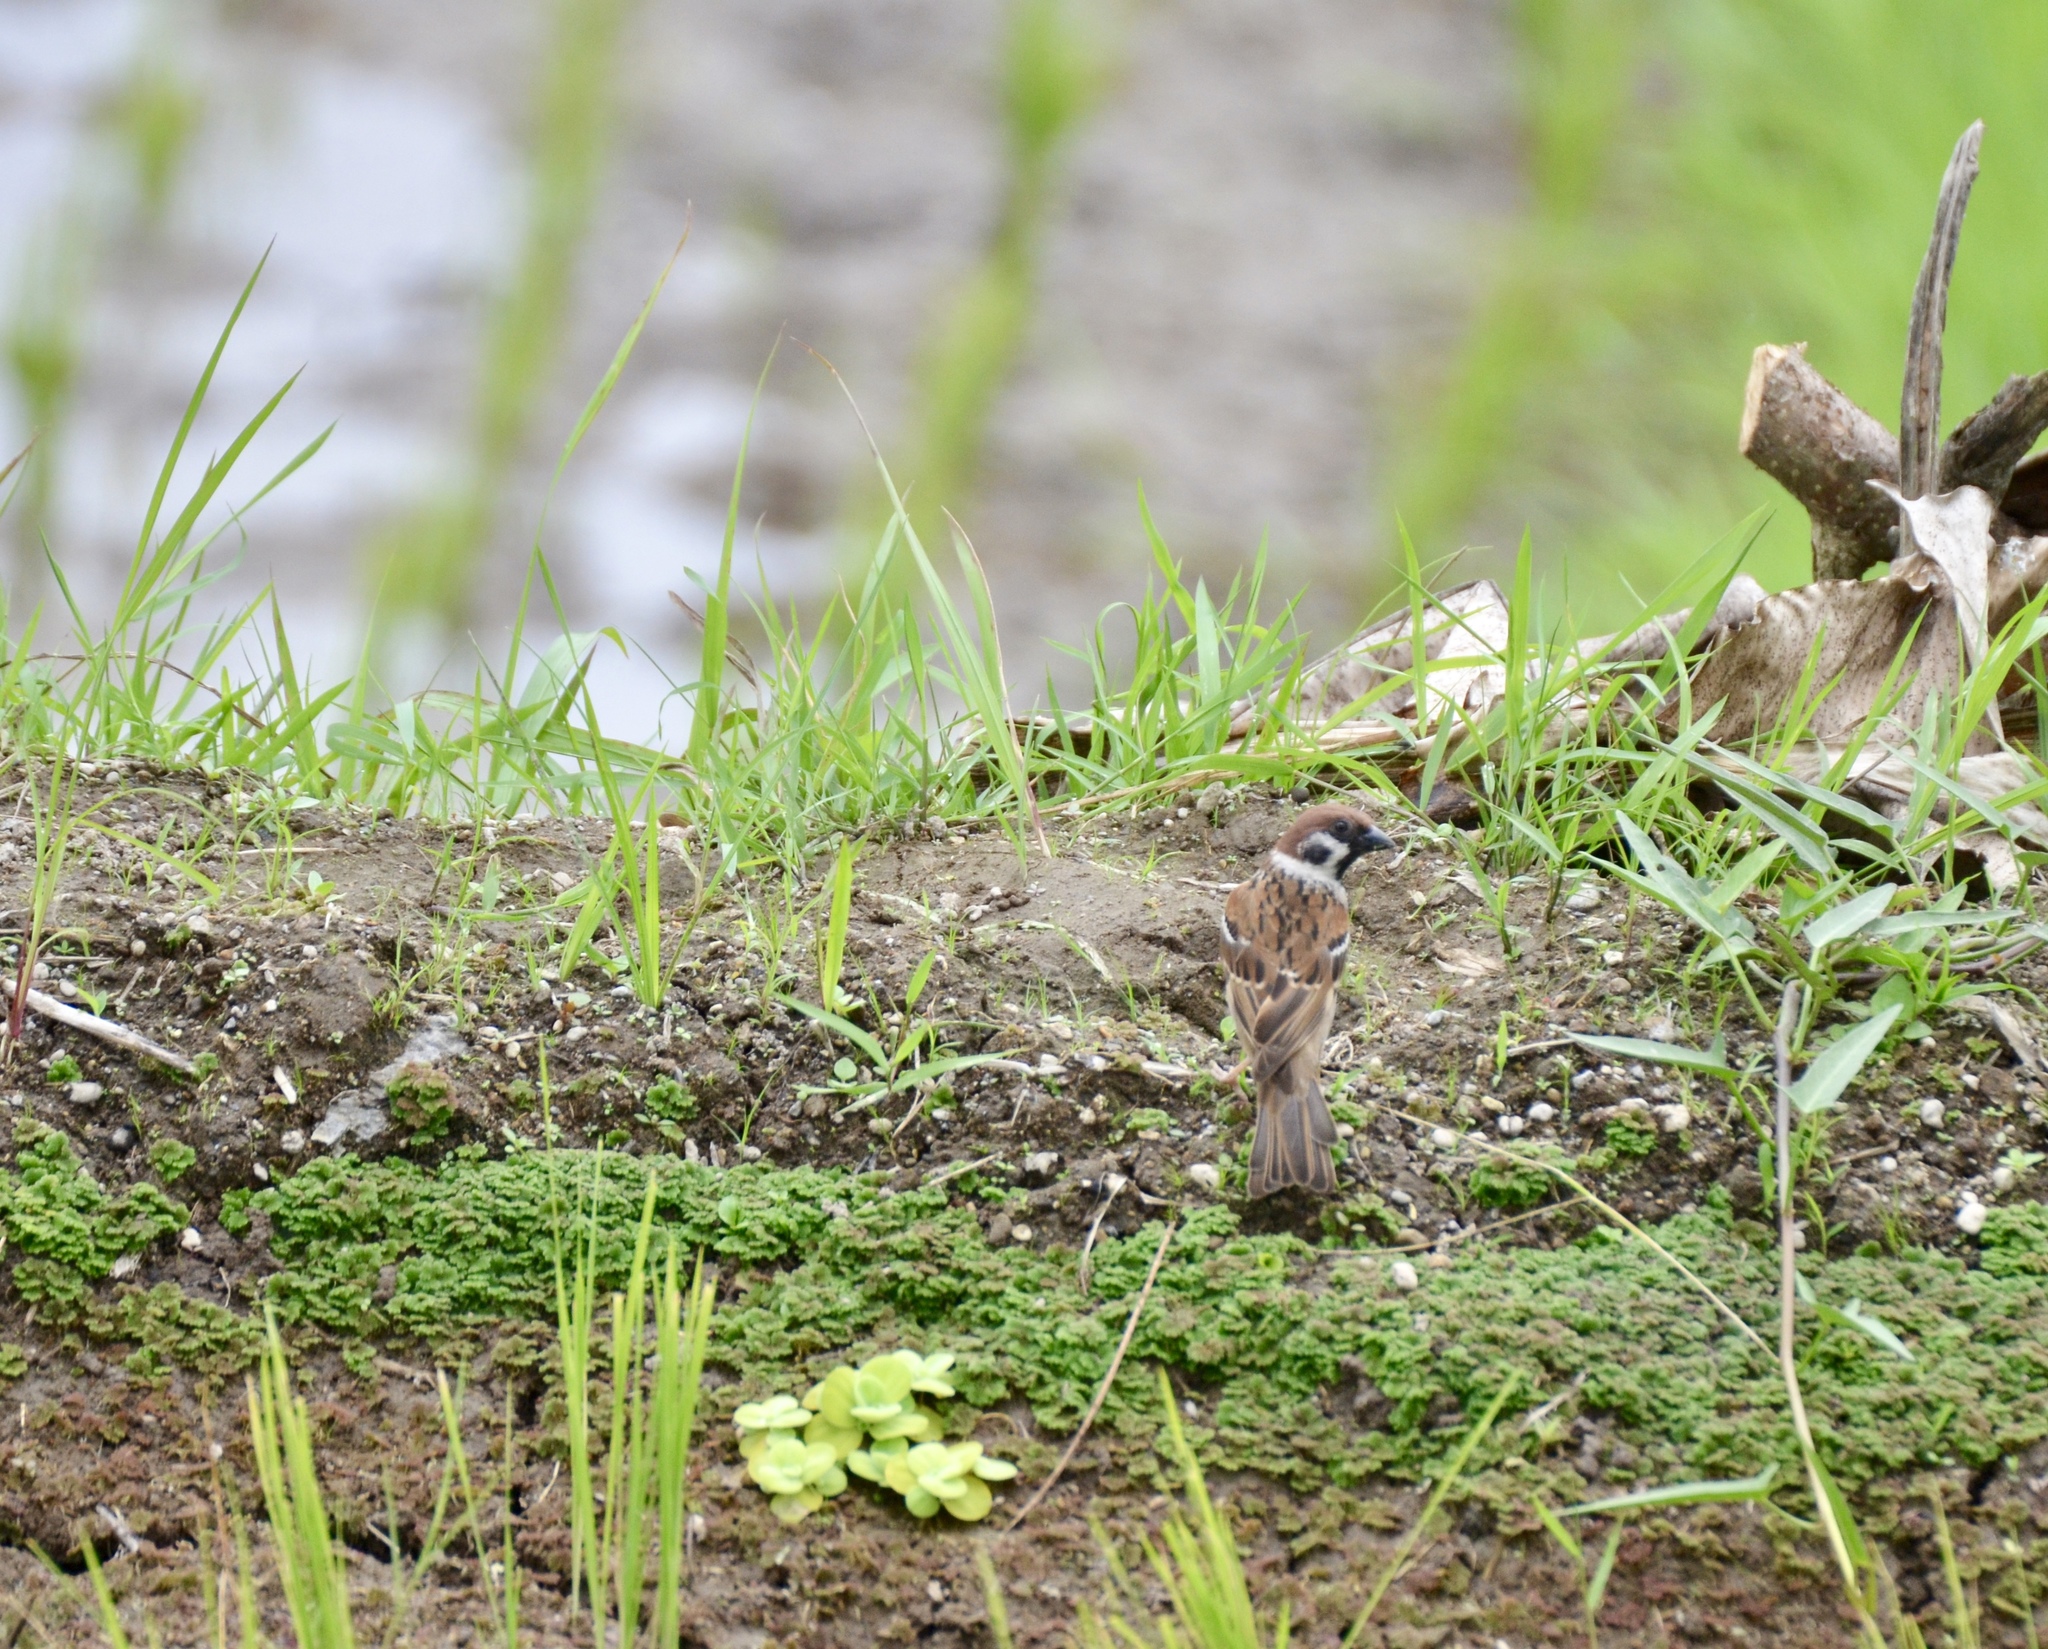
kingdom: Animalia
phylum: Chordata
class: Aves
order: Passeriformes
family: Passeridae
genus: Passer
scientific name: Passer montanus
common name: Eurasian tree sparrow
